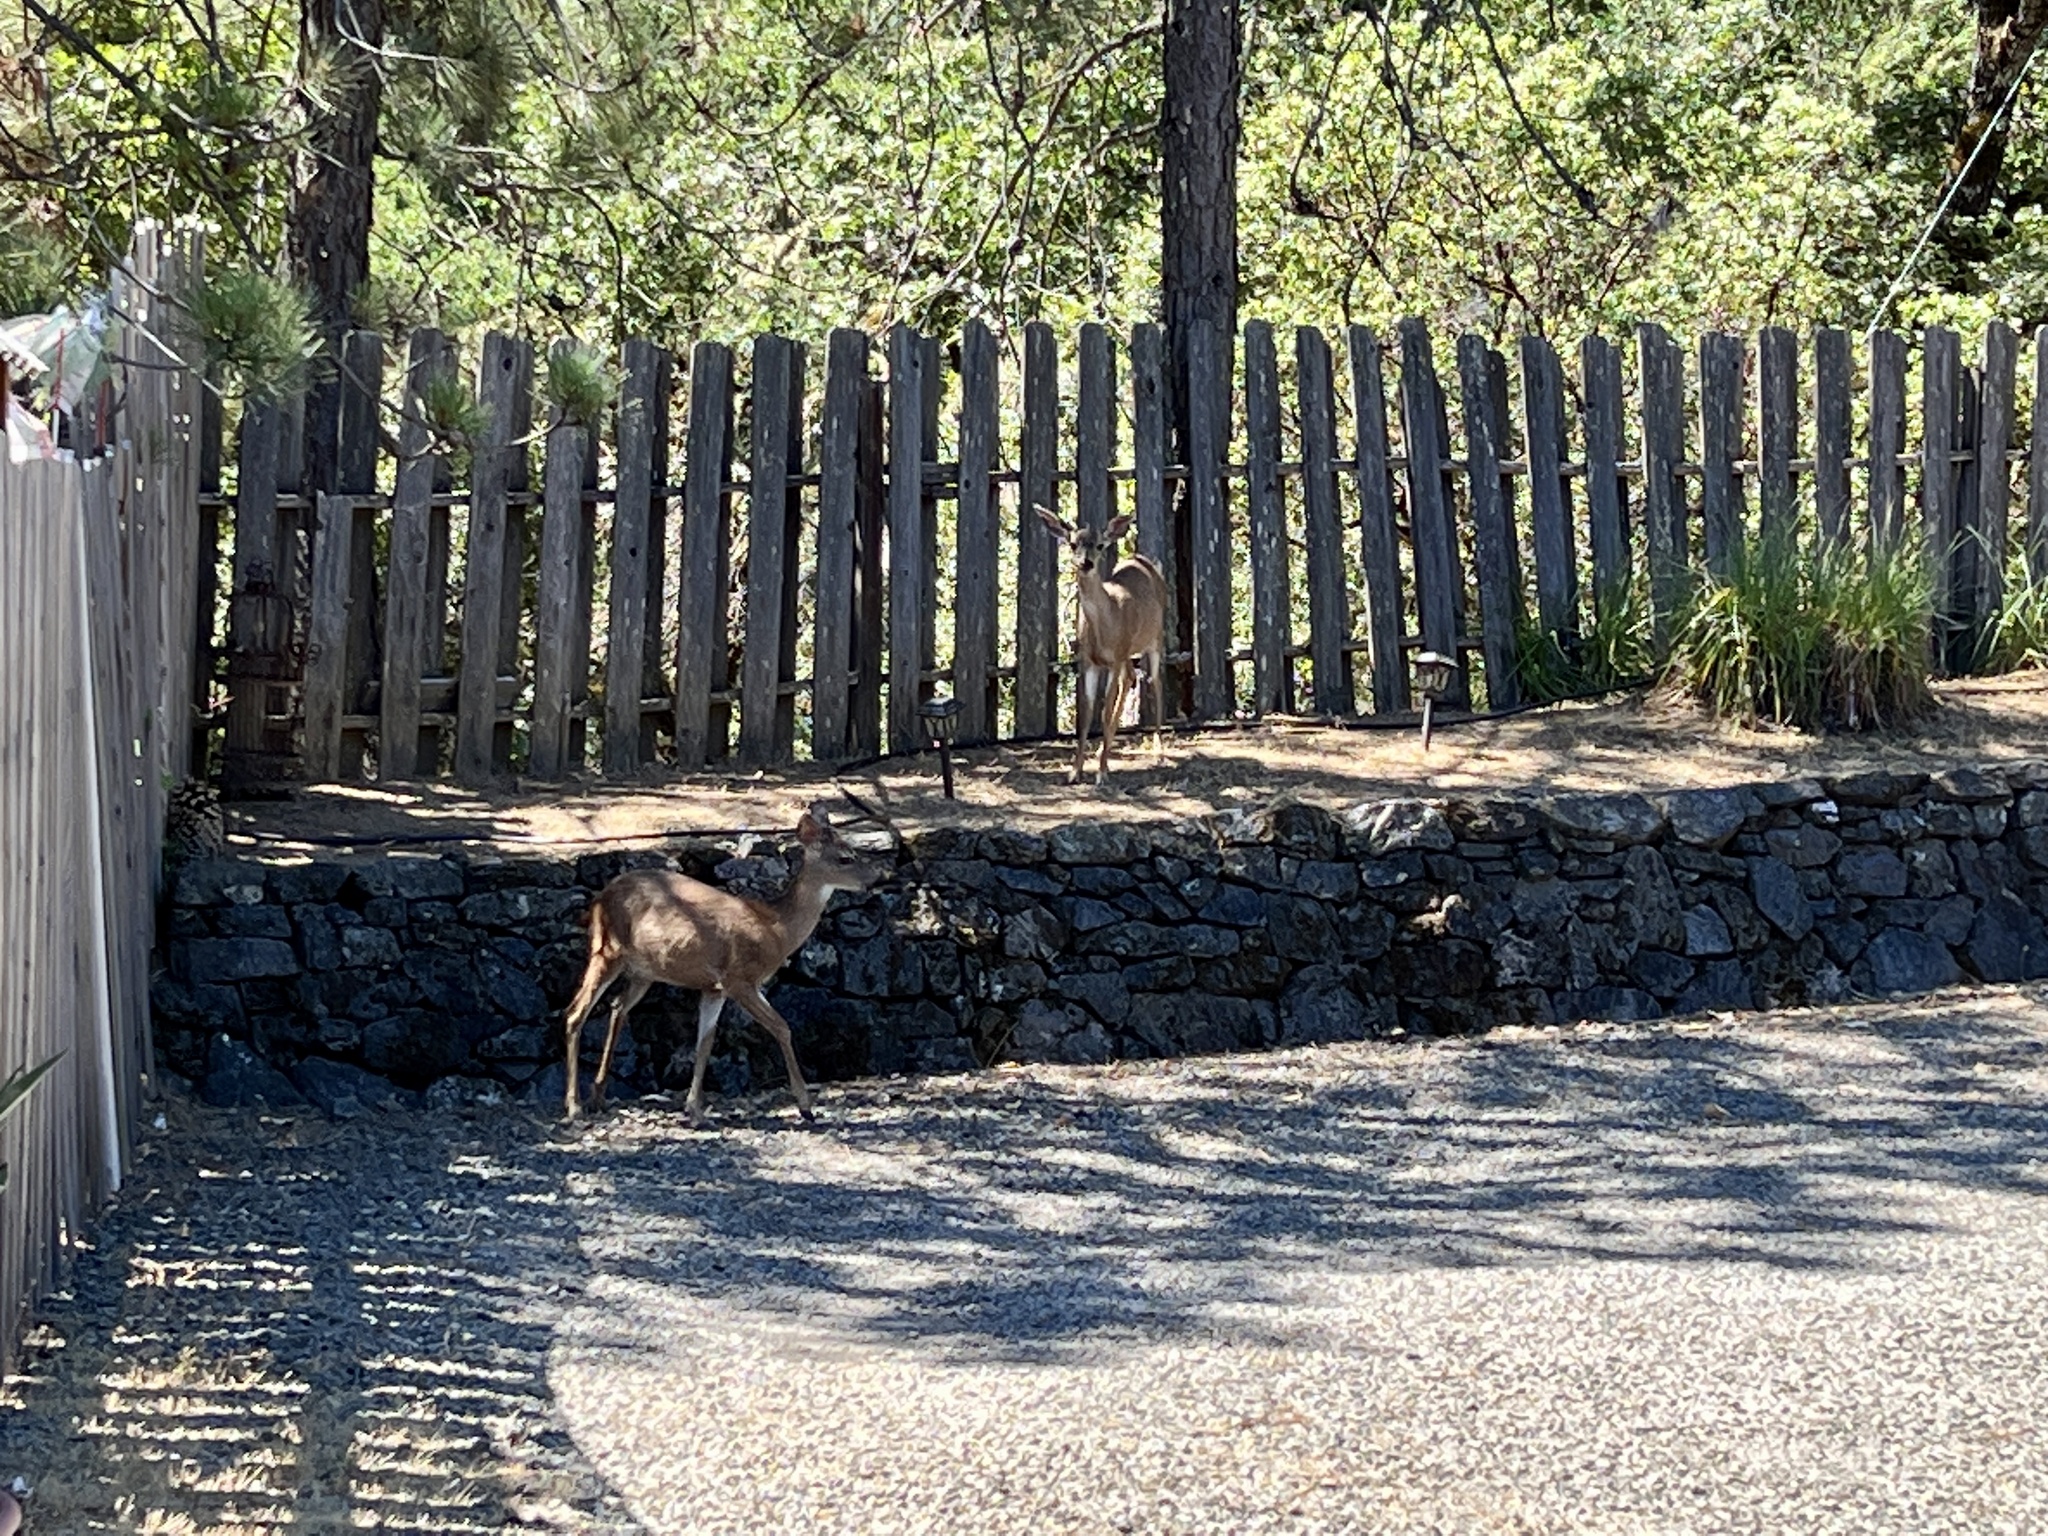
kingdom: Animalia
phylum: Chordata
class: Mammalia
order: Artiodactyla
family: Cervidae
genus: Odocoileus
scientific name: Odocoileus hemionus
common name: Mule deer
